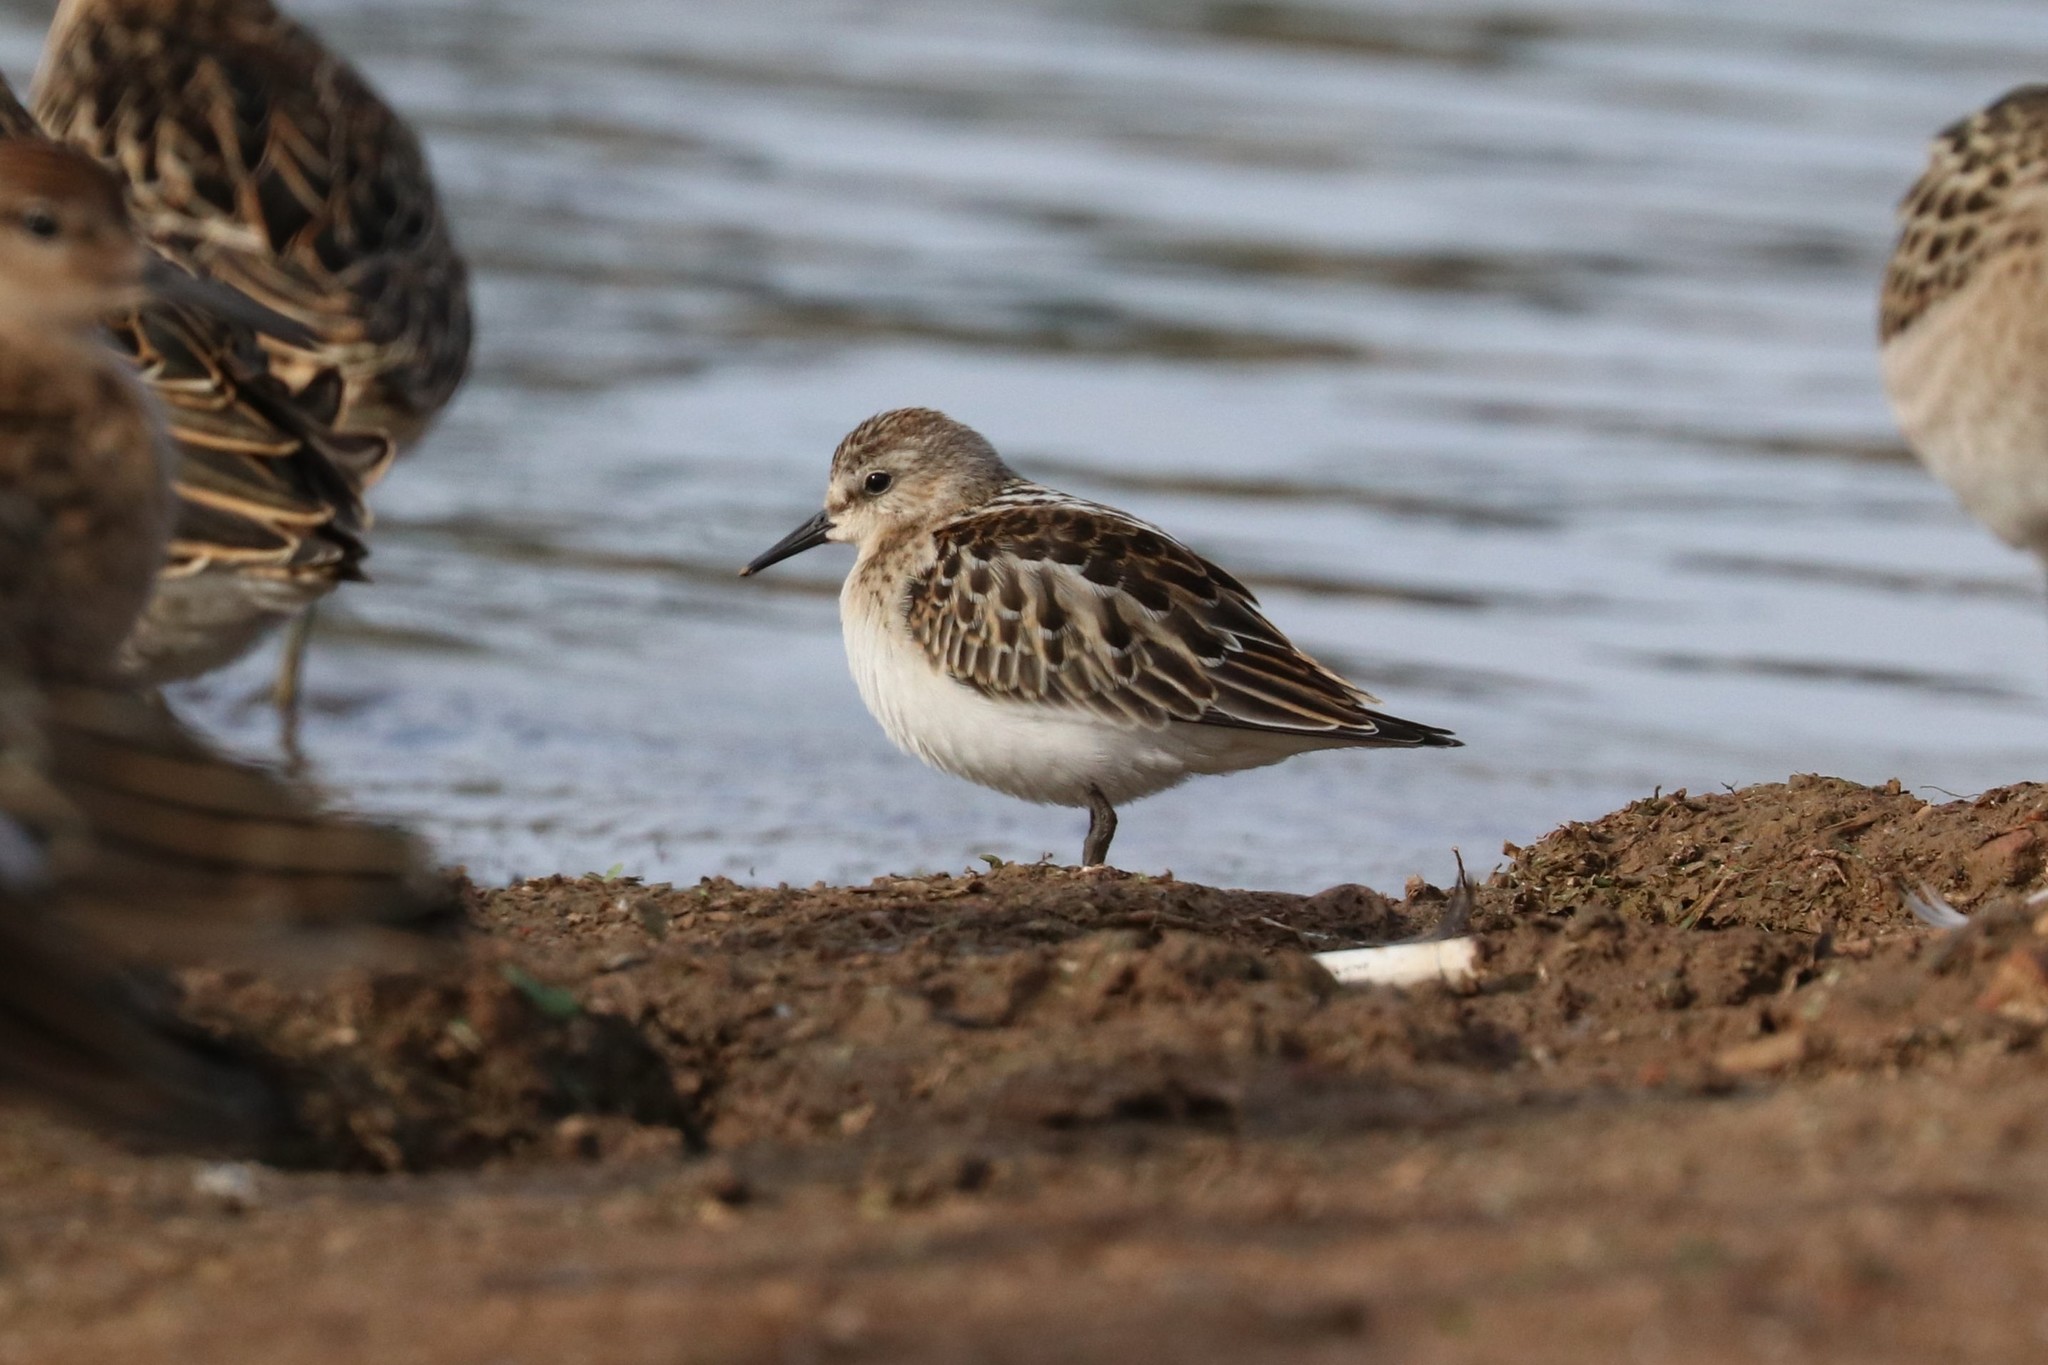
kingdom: Animalia
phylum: Chordata
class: Aves
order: Charadriiformes
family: Scolopacidae
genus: Calidris
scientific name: Calidris minuta
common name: Little stint
